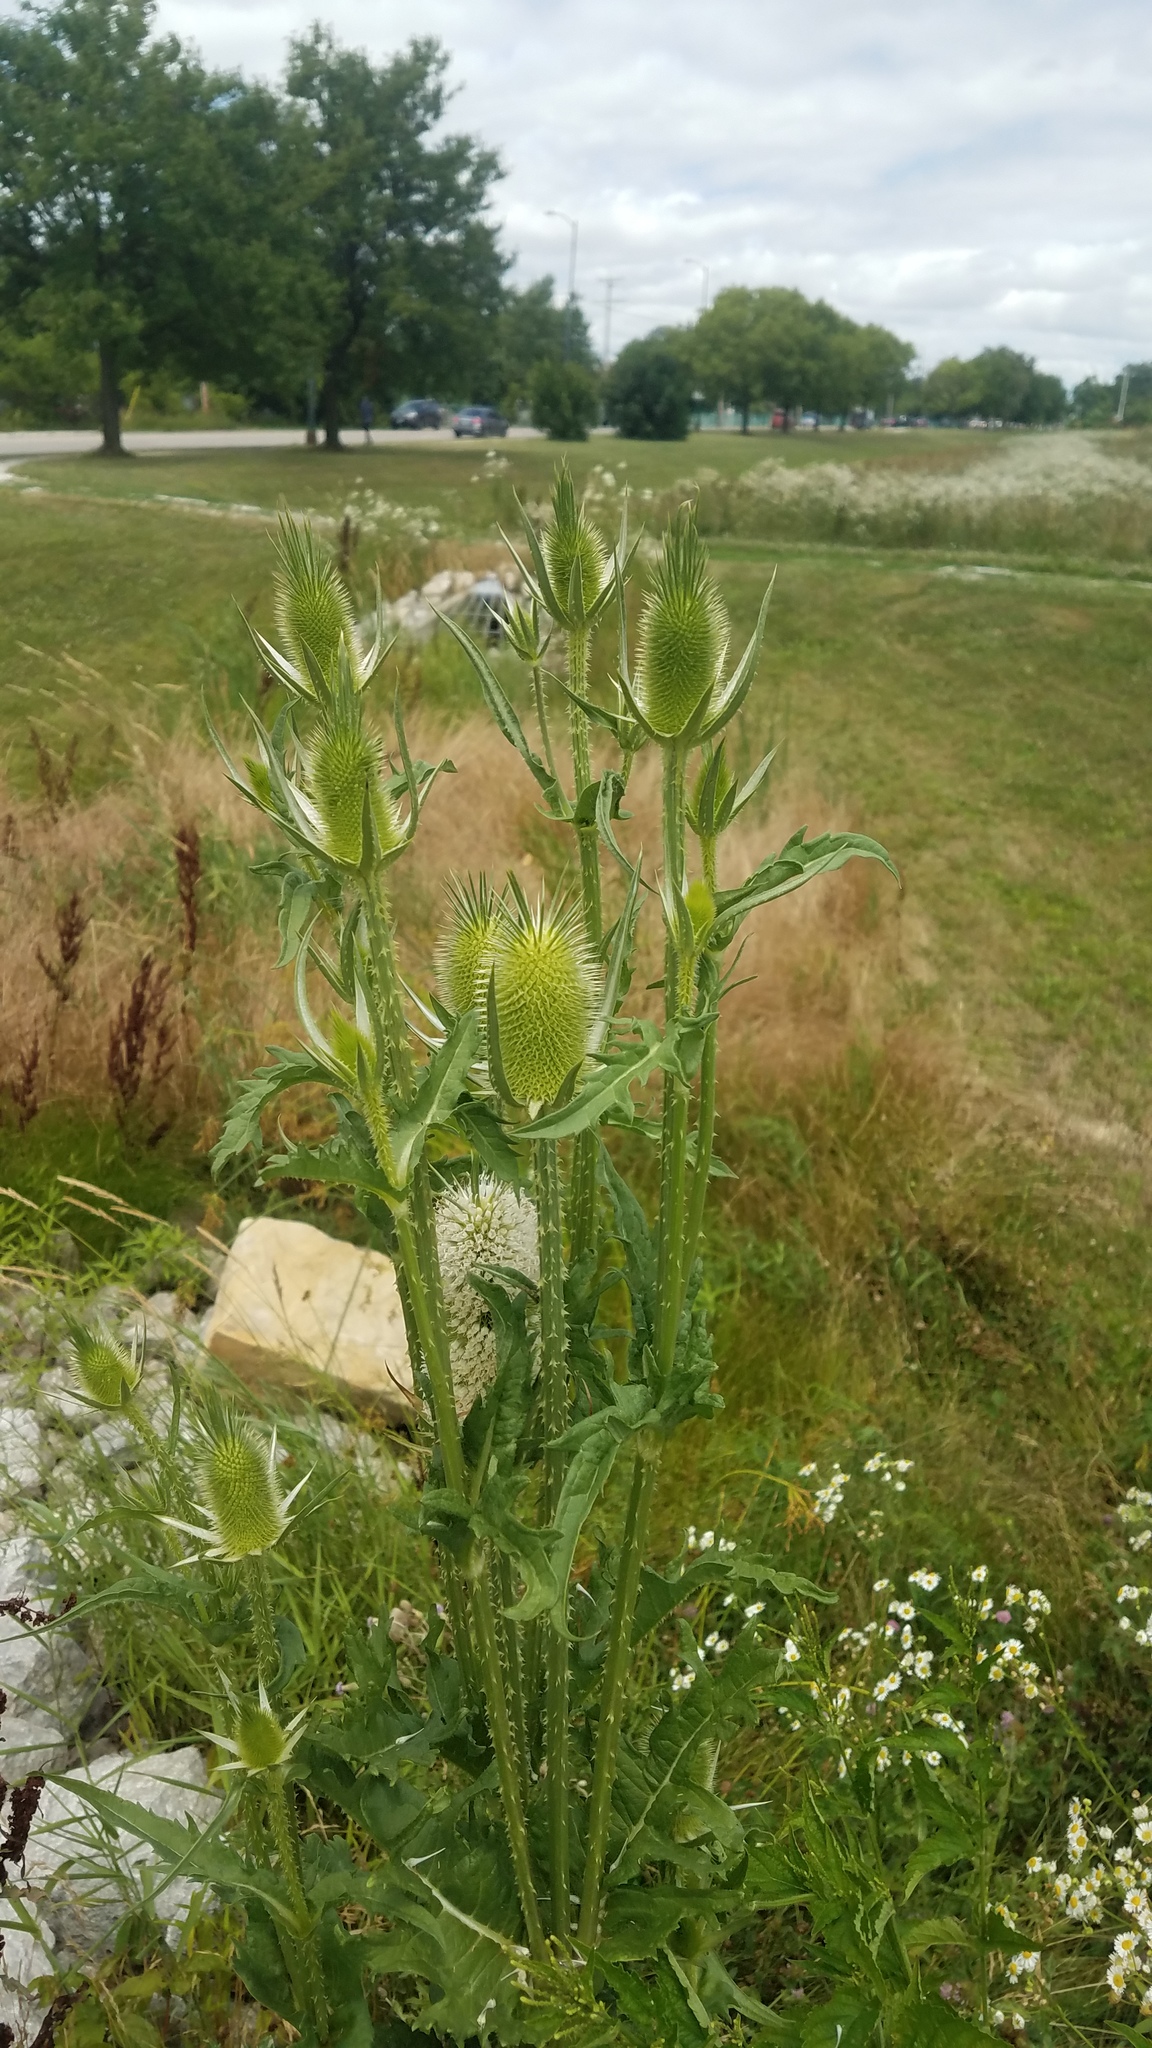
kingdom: Plantae
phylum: Tracheophyta
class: Magnoliopsida
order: Dipsacales
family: Caprifoliaceae
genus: Dipsacus
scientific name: Dipsacus laciniatus
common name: Cut-leaved teasel
